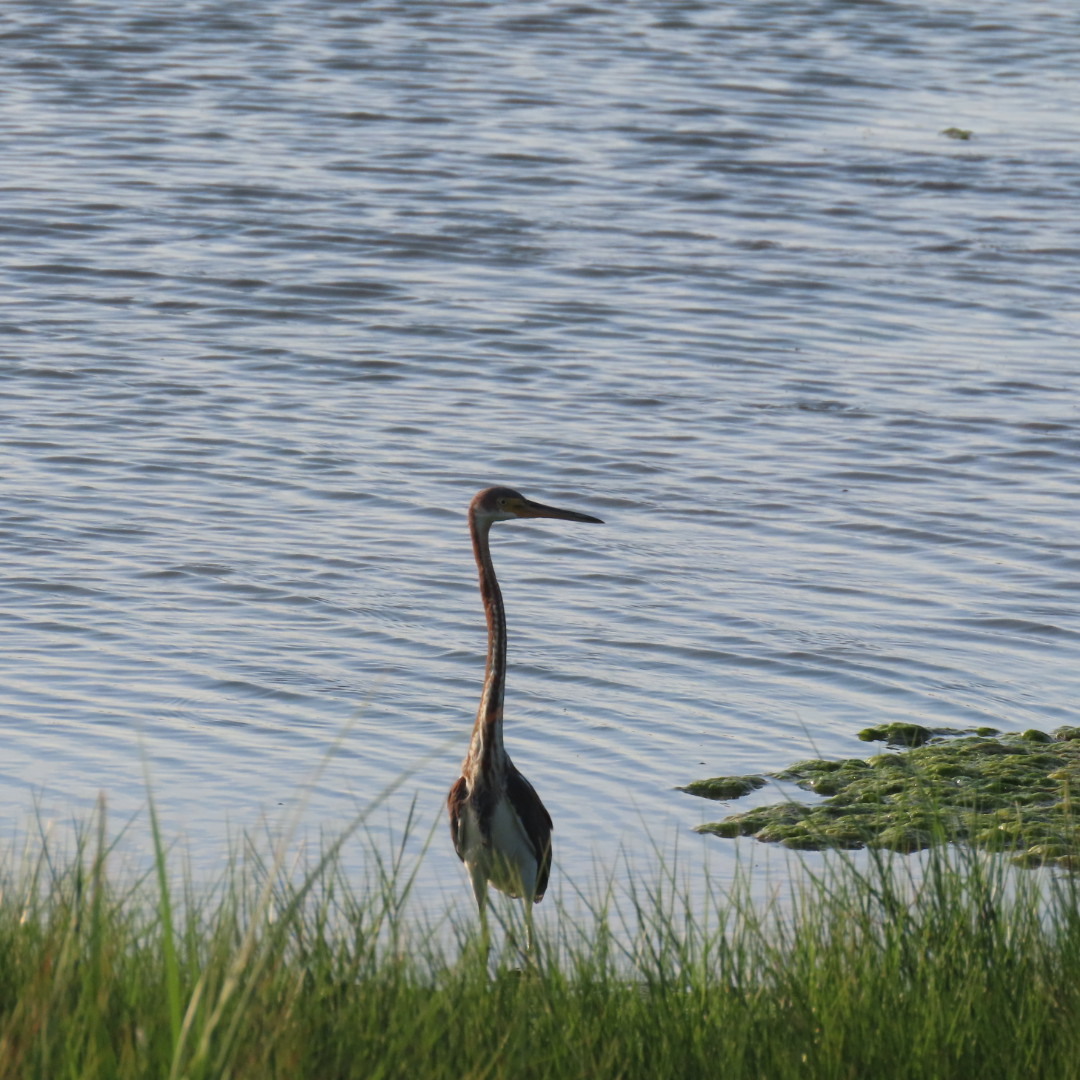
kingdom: Animalia
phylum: Chordata
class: Aves
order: Pelecaniformes
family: Ardeidae
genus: Egretta
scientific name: Egretta tricolor
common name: Tricolored heron
